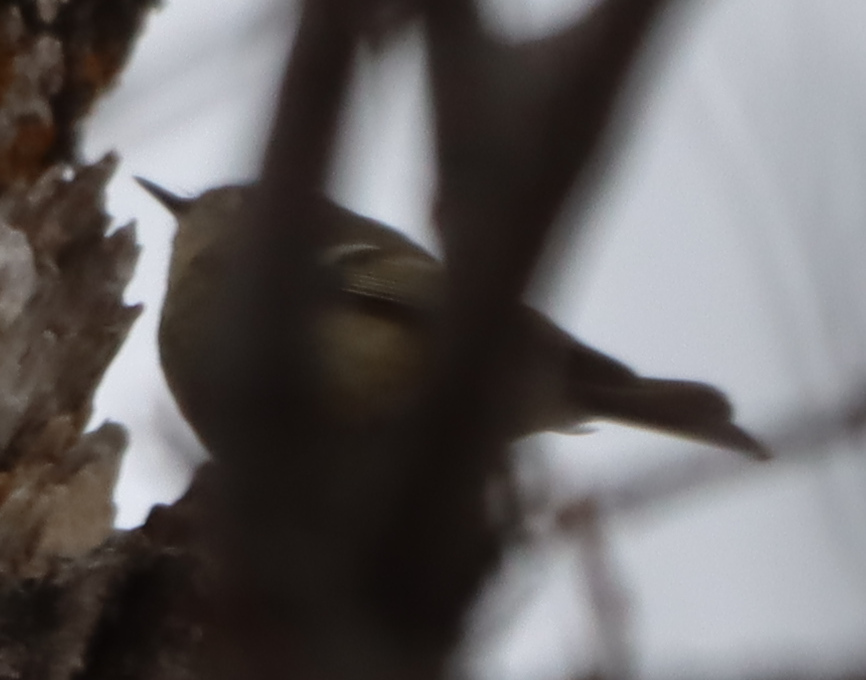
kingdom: Animalia
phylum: Chordata
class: Aves
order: Passeriformes
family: Regulidae
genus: Regulus
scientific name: Regulus calendula
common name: Ruby-crowned kinglet
